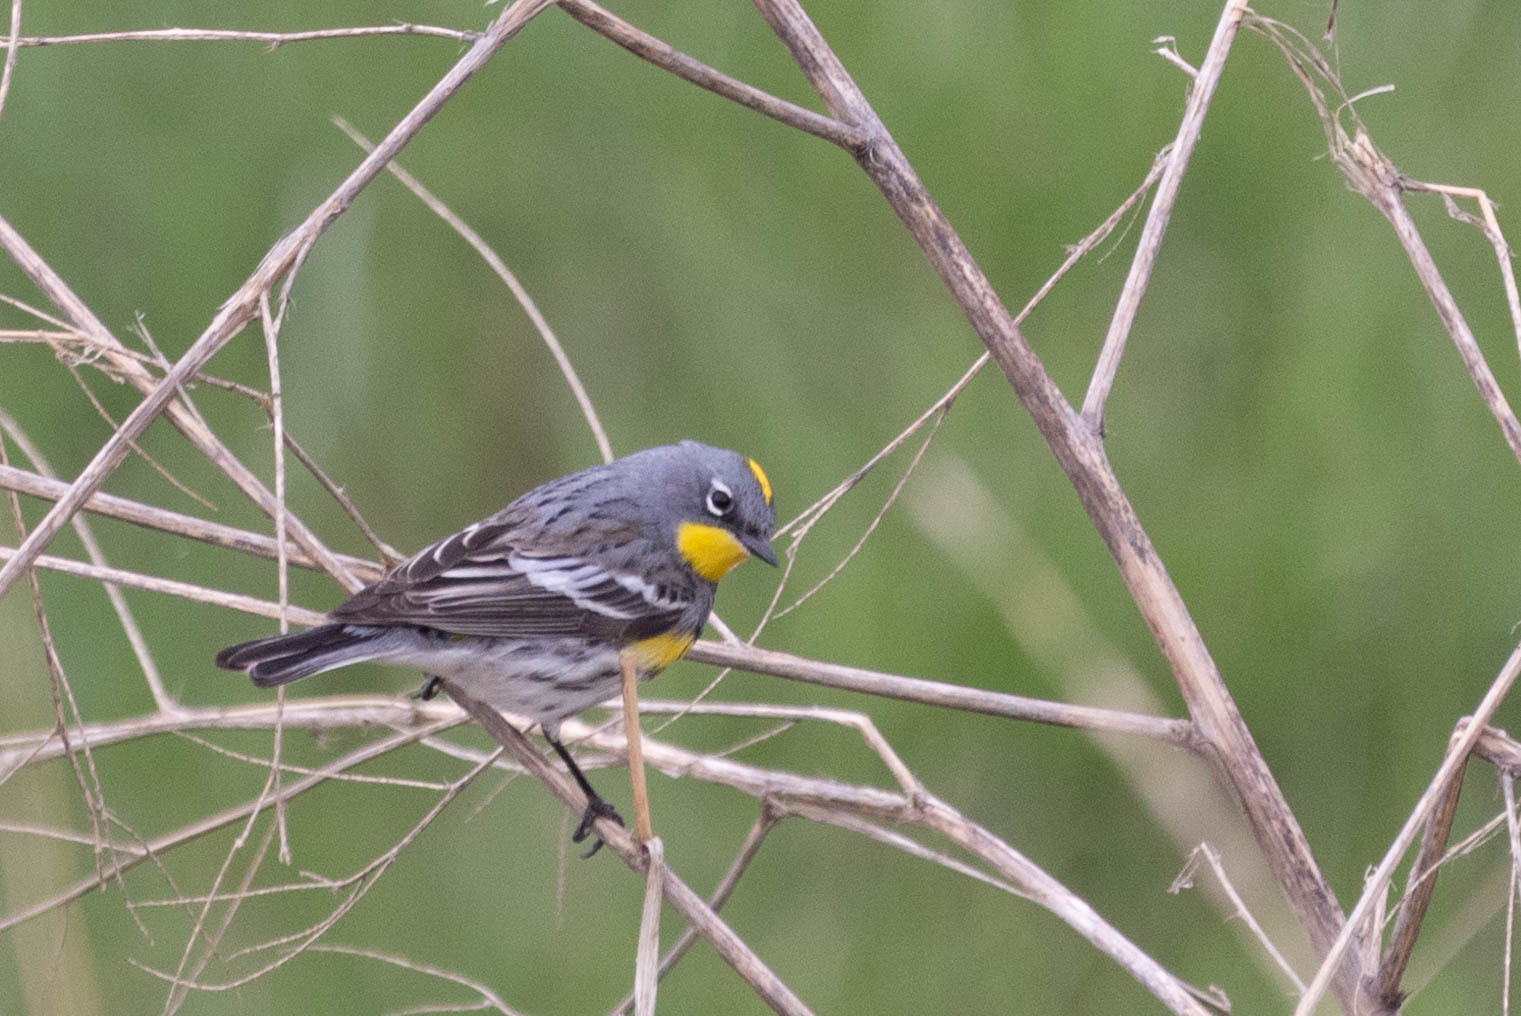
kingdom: Animalia
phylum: Chordata
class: Aves
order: Passeriformes
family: Parulidae
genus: Setophaga
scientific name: Setophaga auduboni
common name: Audubon's warbler
